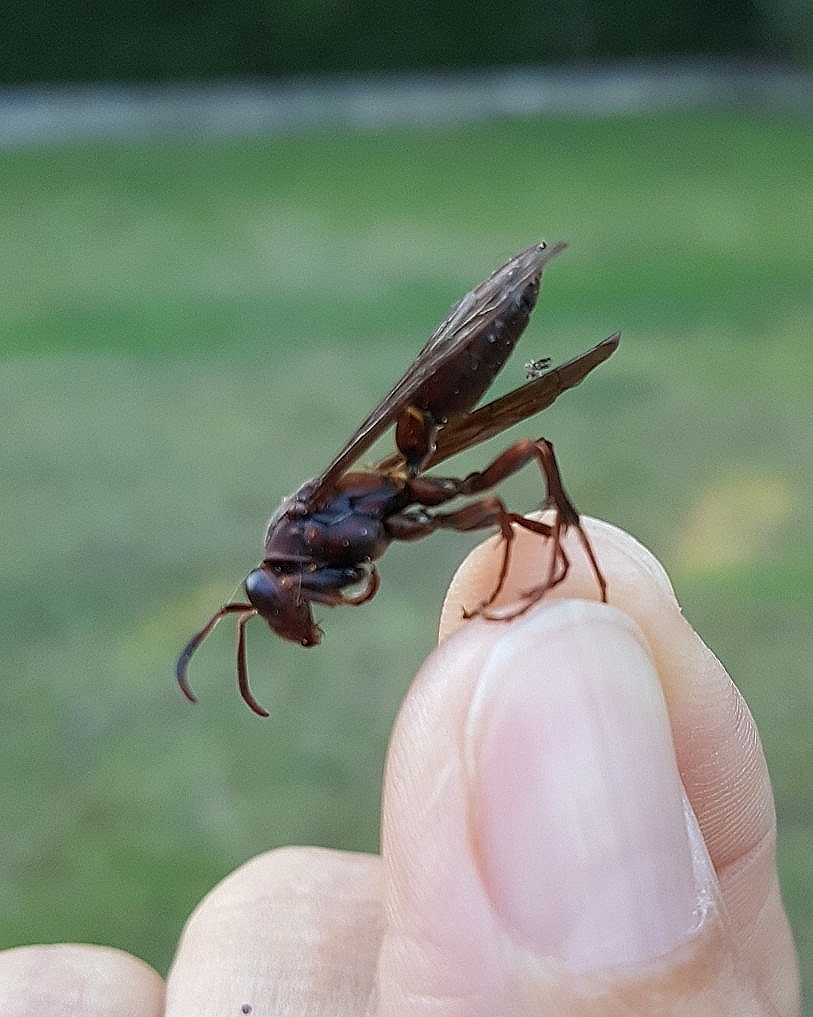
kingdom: Animalia
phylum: Arthropoda
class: Insecta
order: Hymenoptera
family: Eumenidae
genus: Polistes
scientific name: Polistes veracrucis
